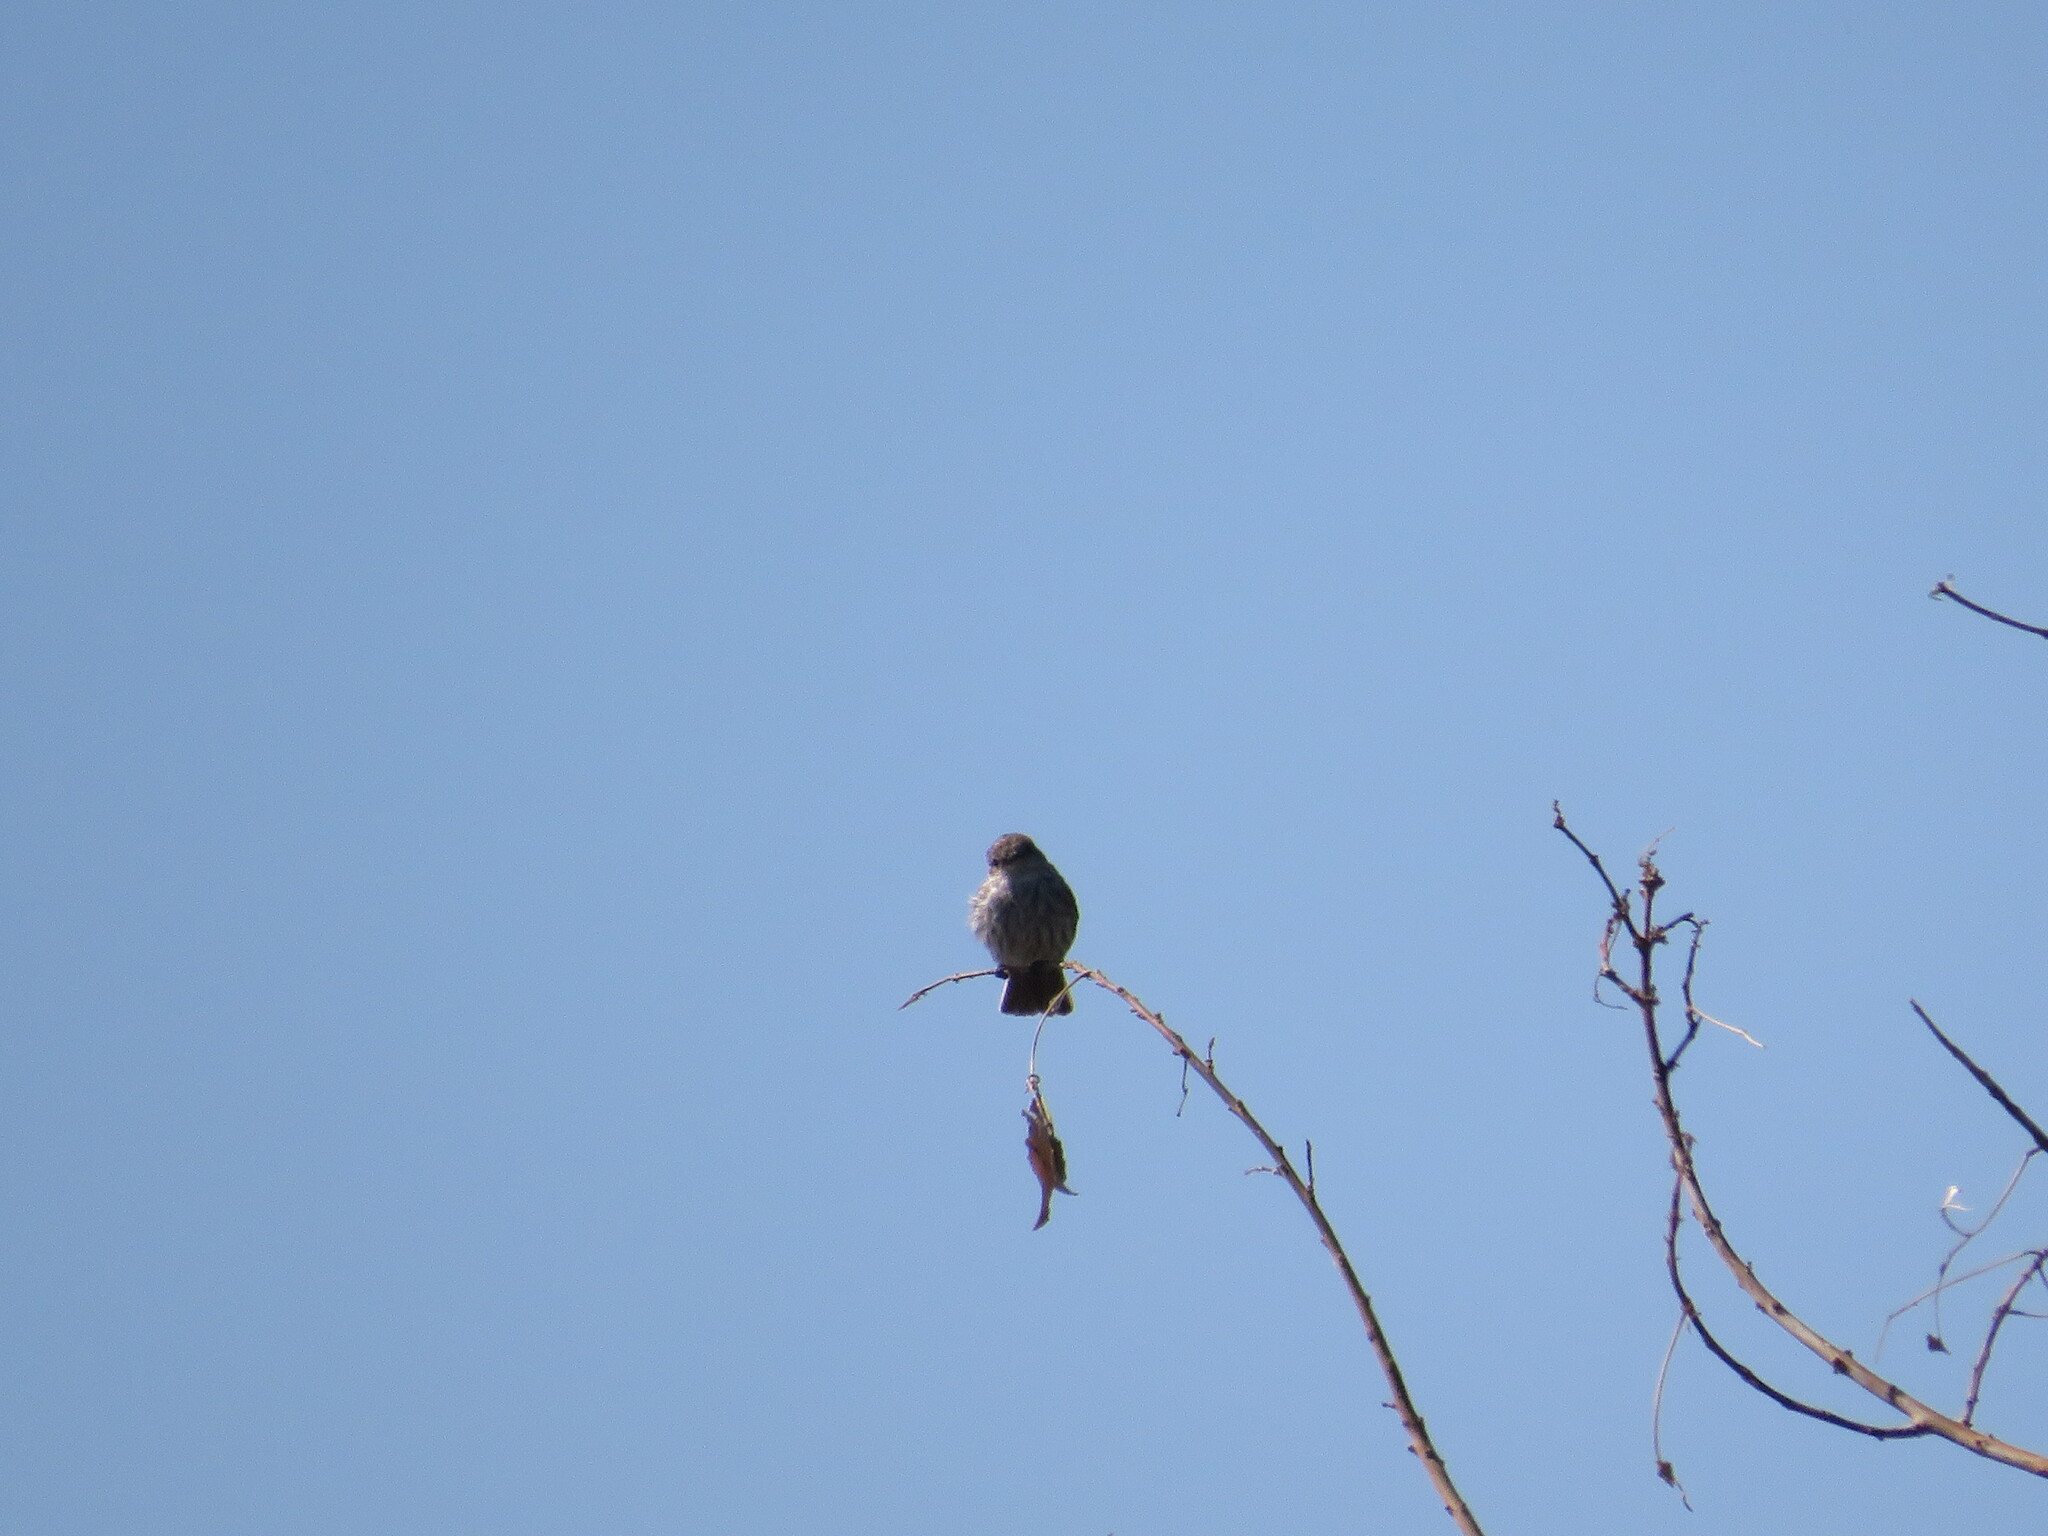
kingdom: Animalia
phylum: Chordata
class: Aves
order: Passeriformes
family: Tyrannidae
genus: Pyrocephalus
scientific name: Pyrocephalus rubinus
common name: Vermilion flycatcher
